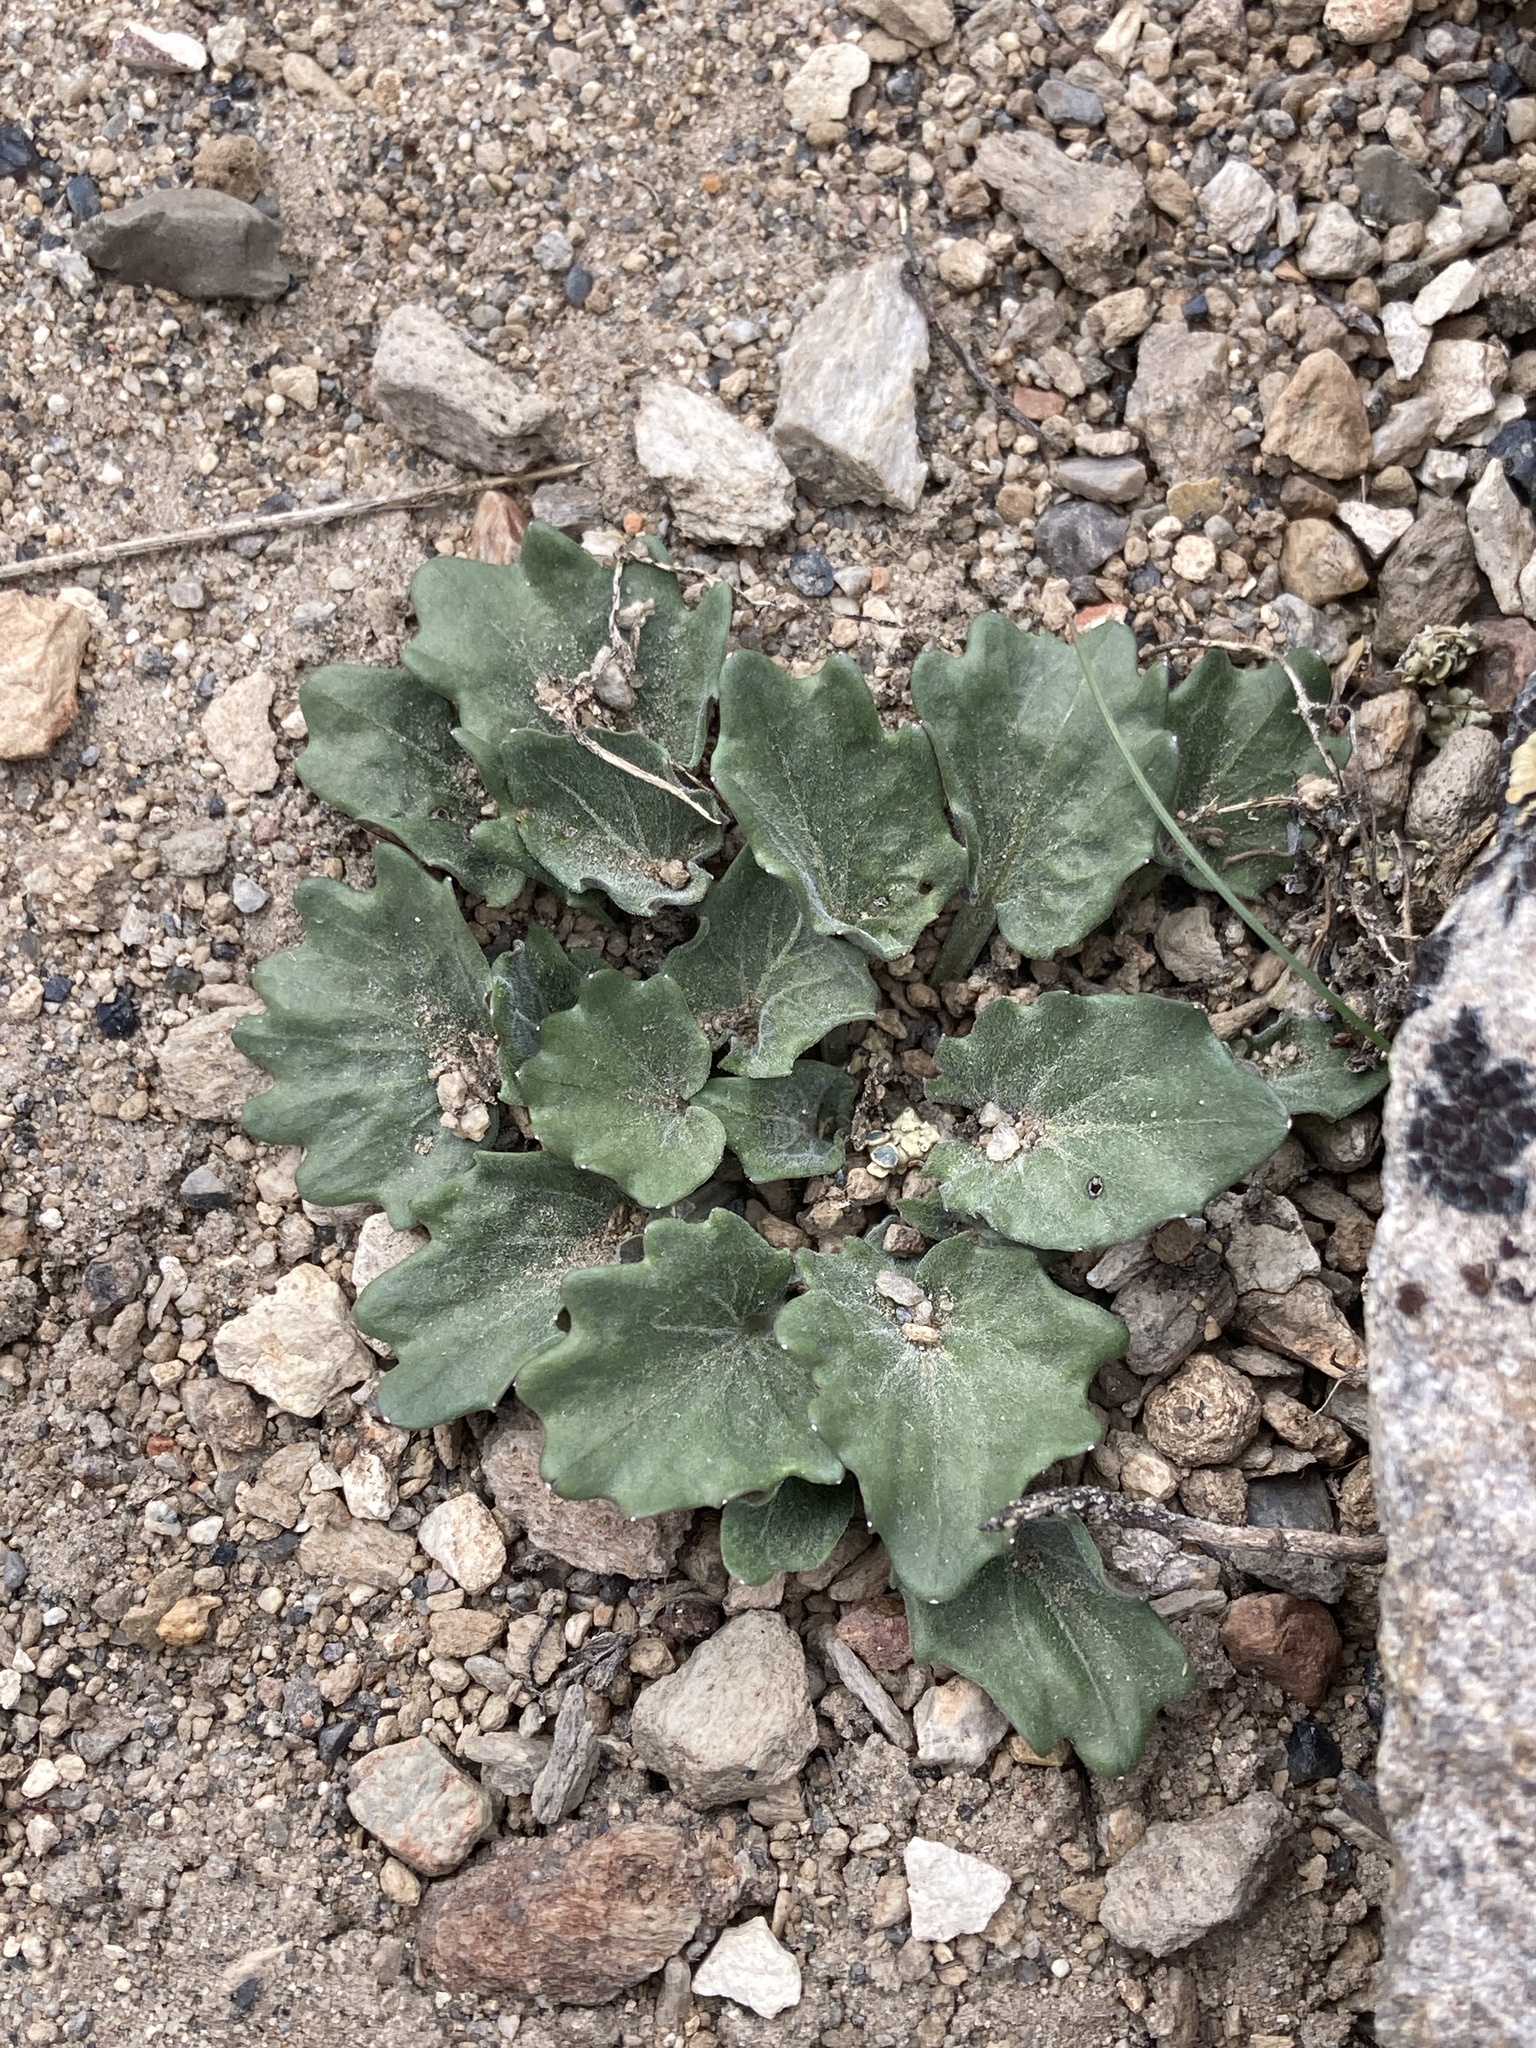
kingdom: Plantae
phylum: Tracheophyta
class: Magnoliopsida
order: Malpighiales
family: Violaceae
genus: Viola
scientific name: Viola purpurea
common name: Pine violet
